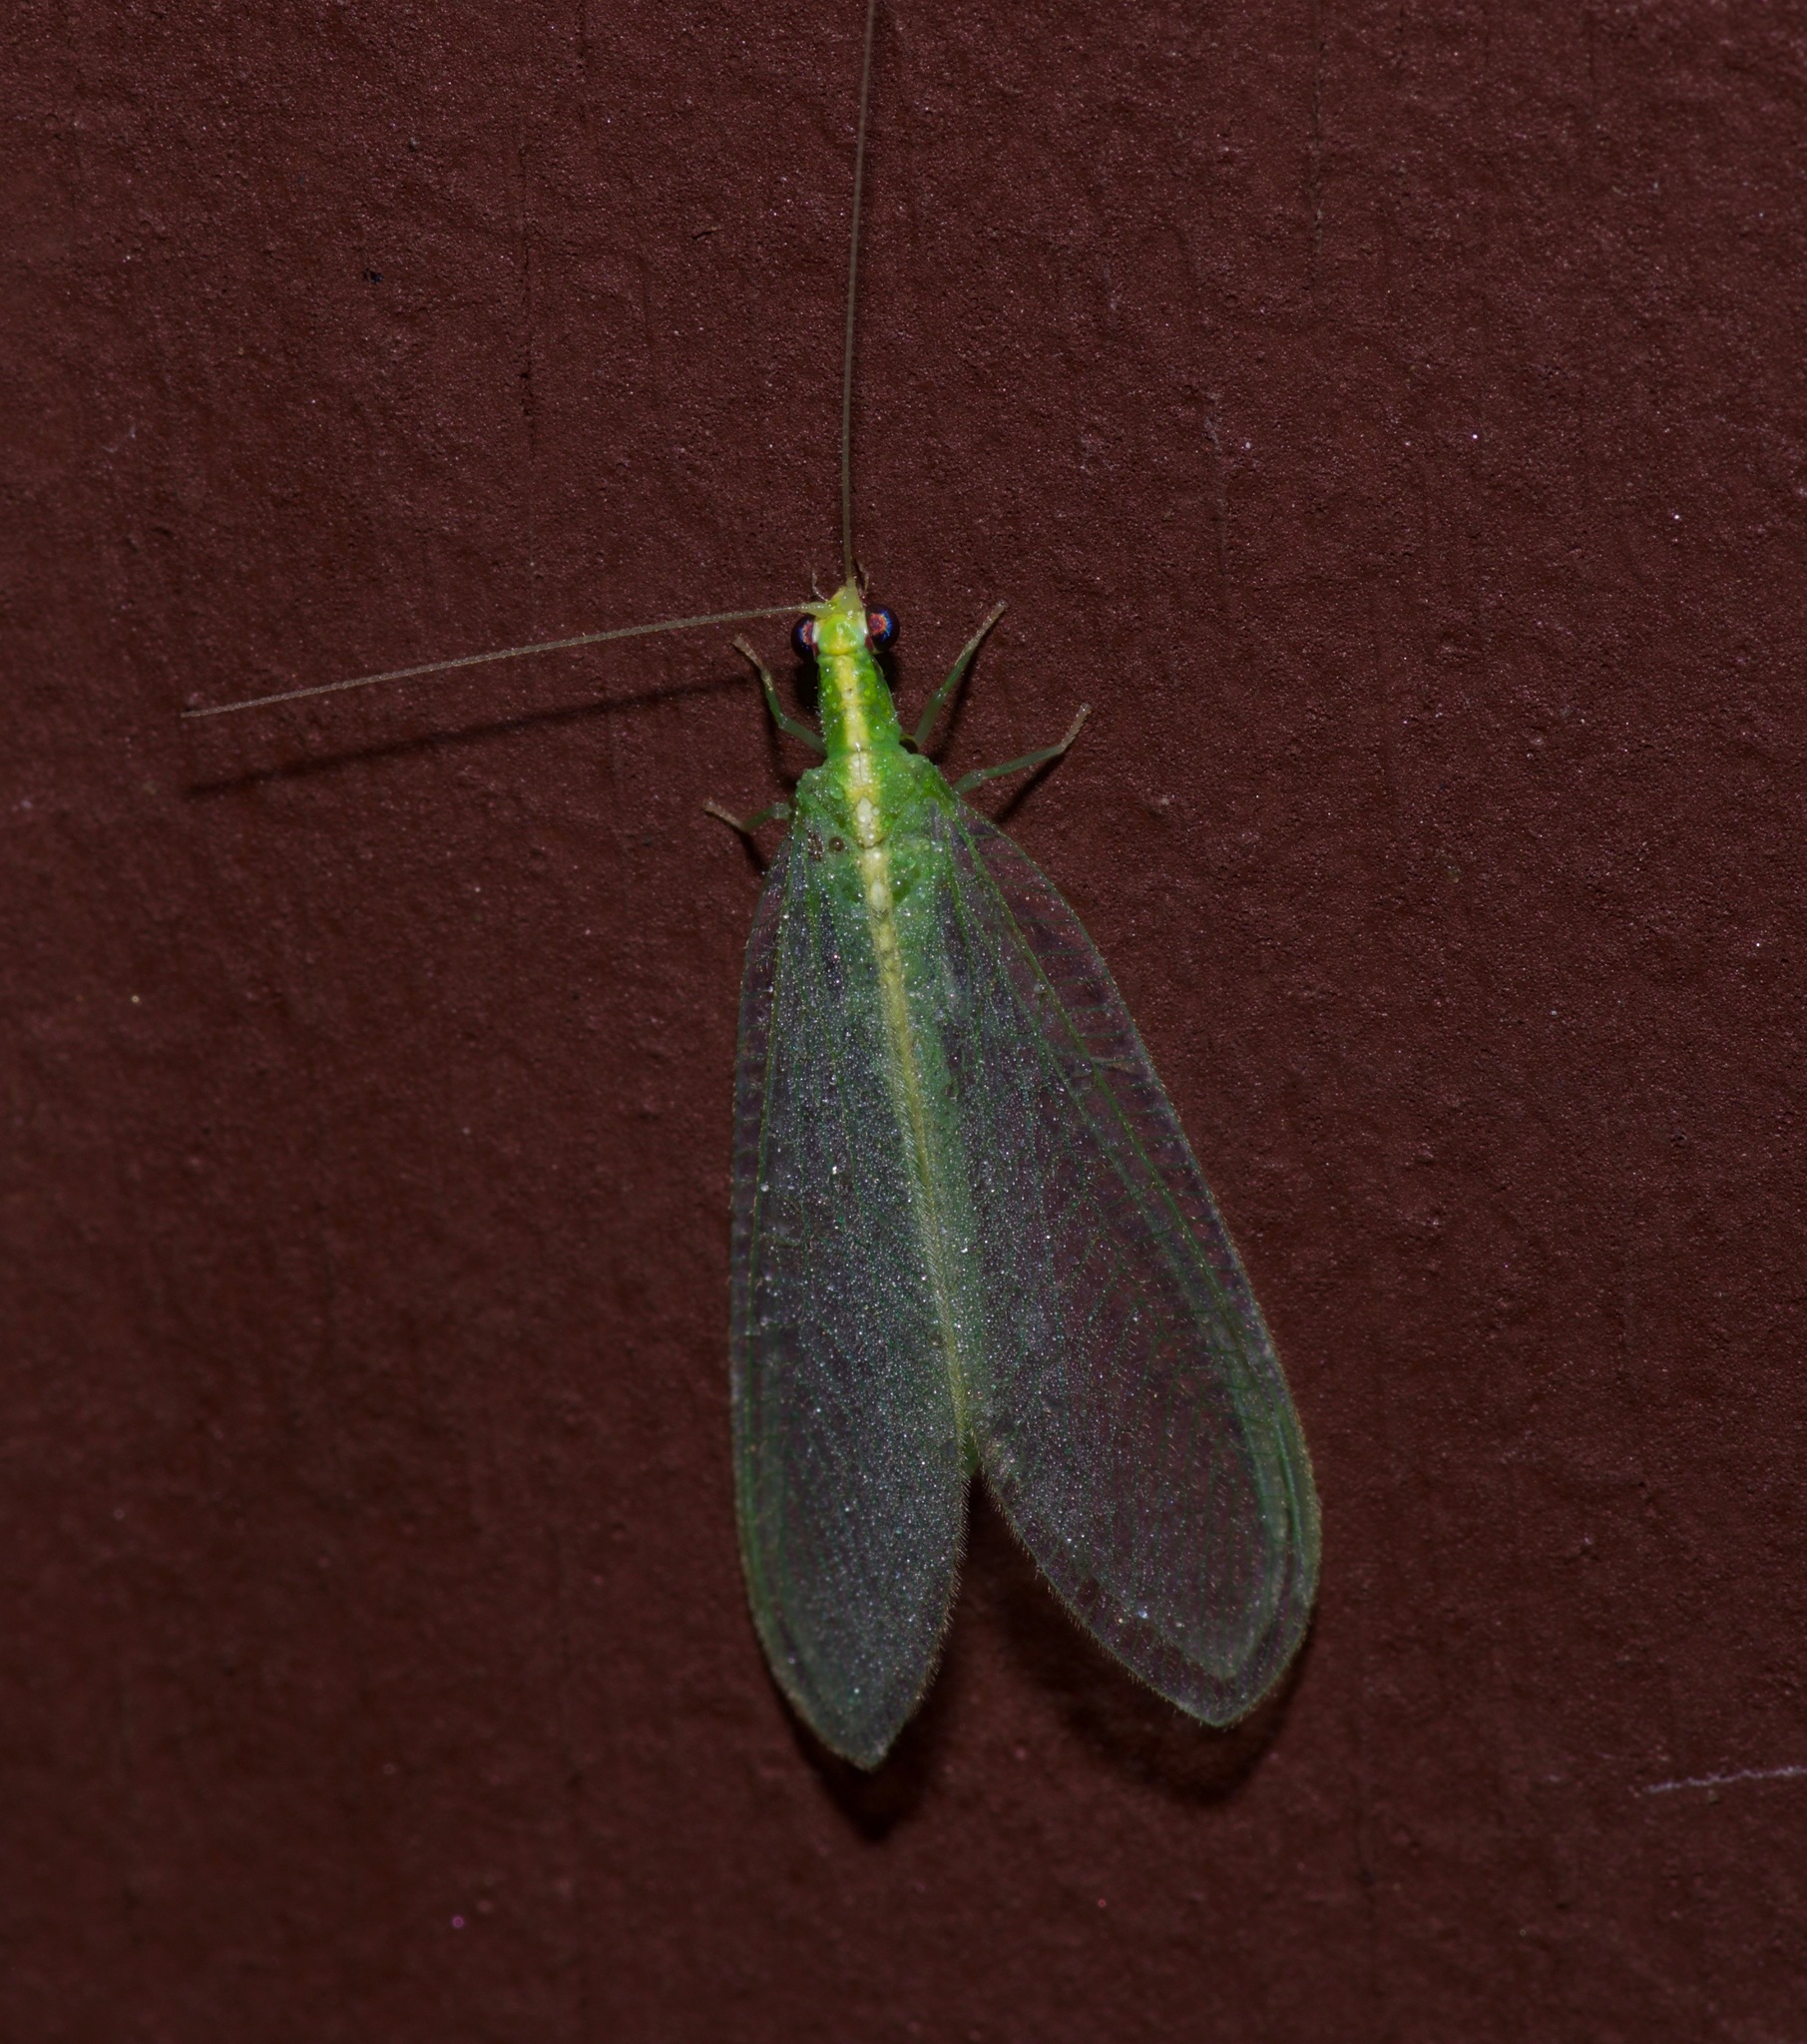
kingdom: Animalia
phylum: Arthropoda
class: Insecta
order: Neuroptera
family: Chrysopidae
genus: Chrysoperla
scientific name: Chrysoperla
